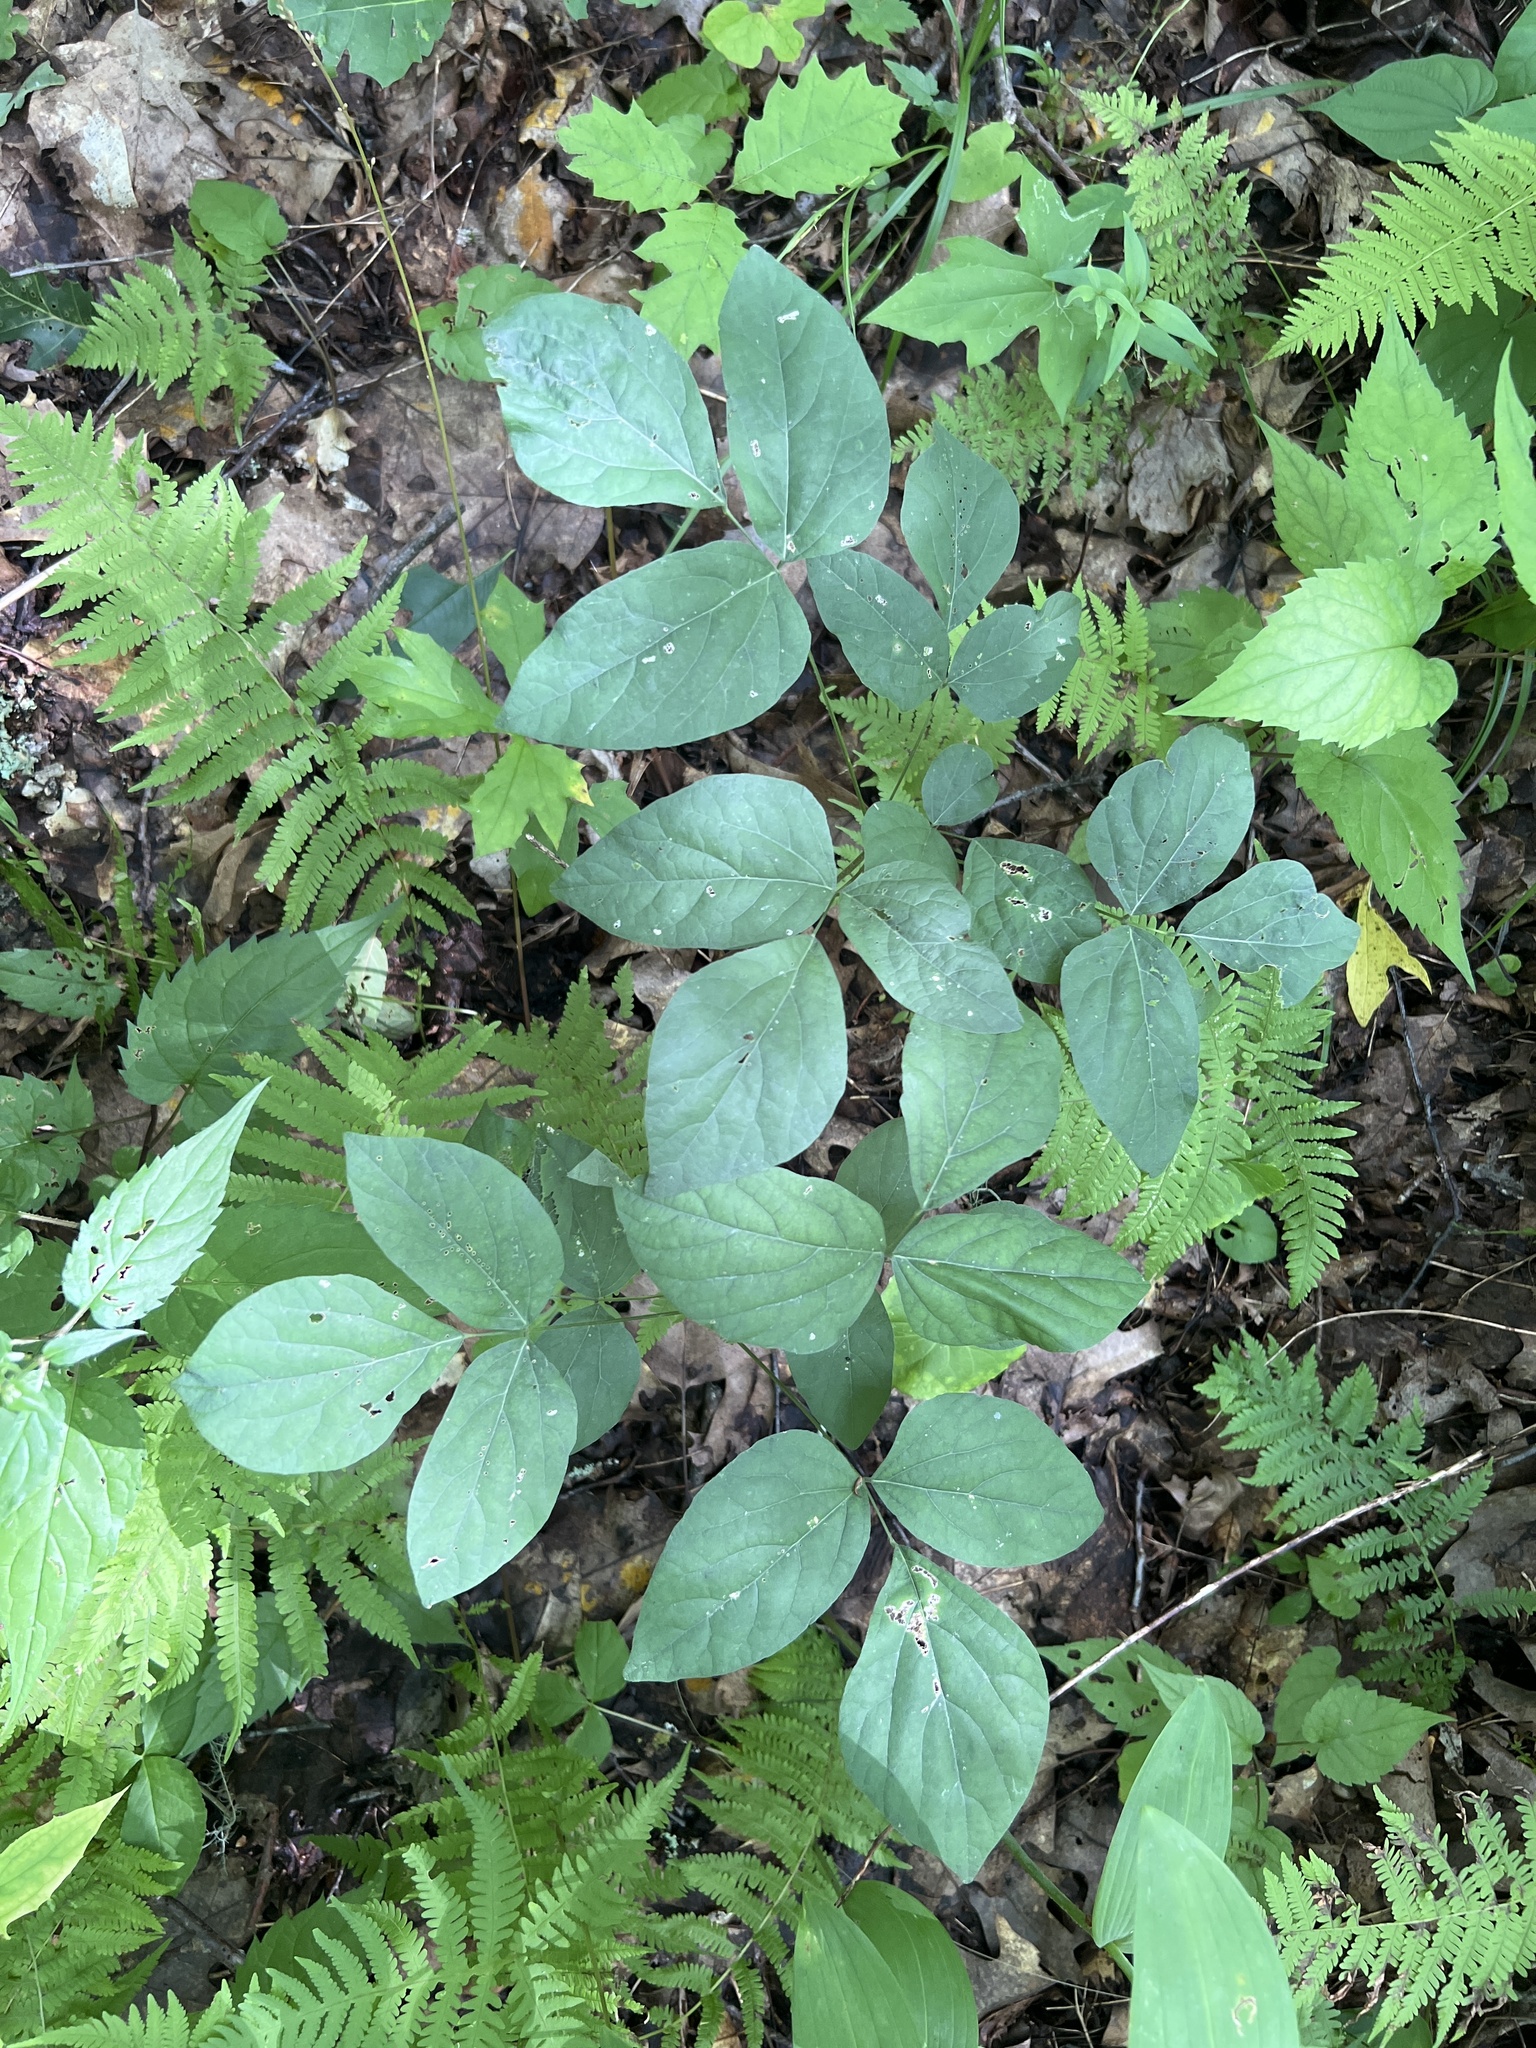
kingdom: Plantae
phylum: Tracheophyta
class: Magnoliopsida
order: Fabales
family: Fabaceae
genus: Hylodesmum
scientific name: Hylodesmum nudiflorum
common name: Bare-stemmed tick-trefoil
